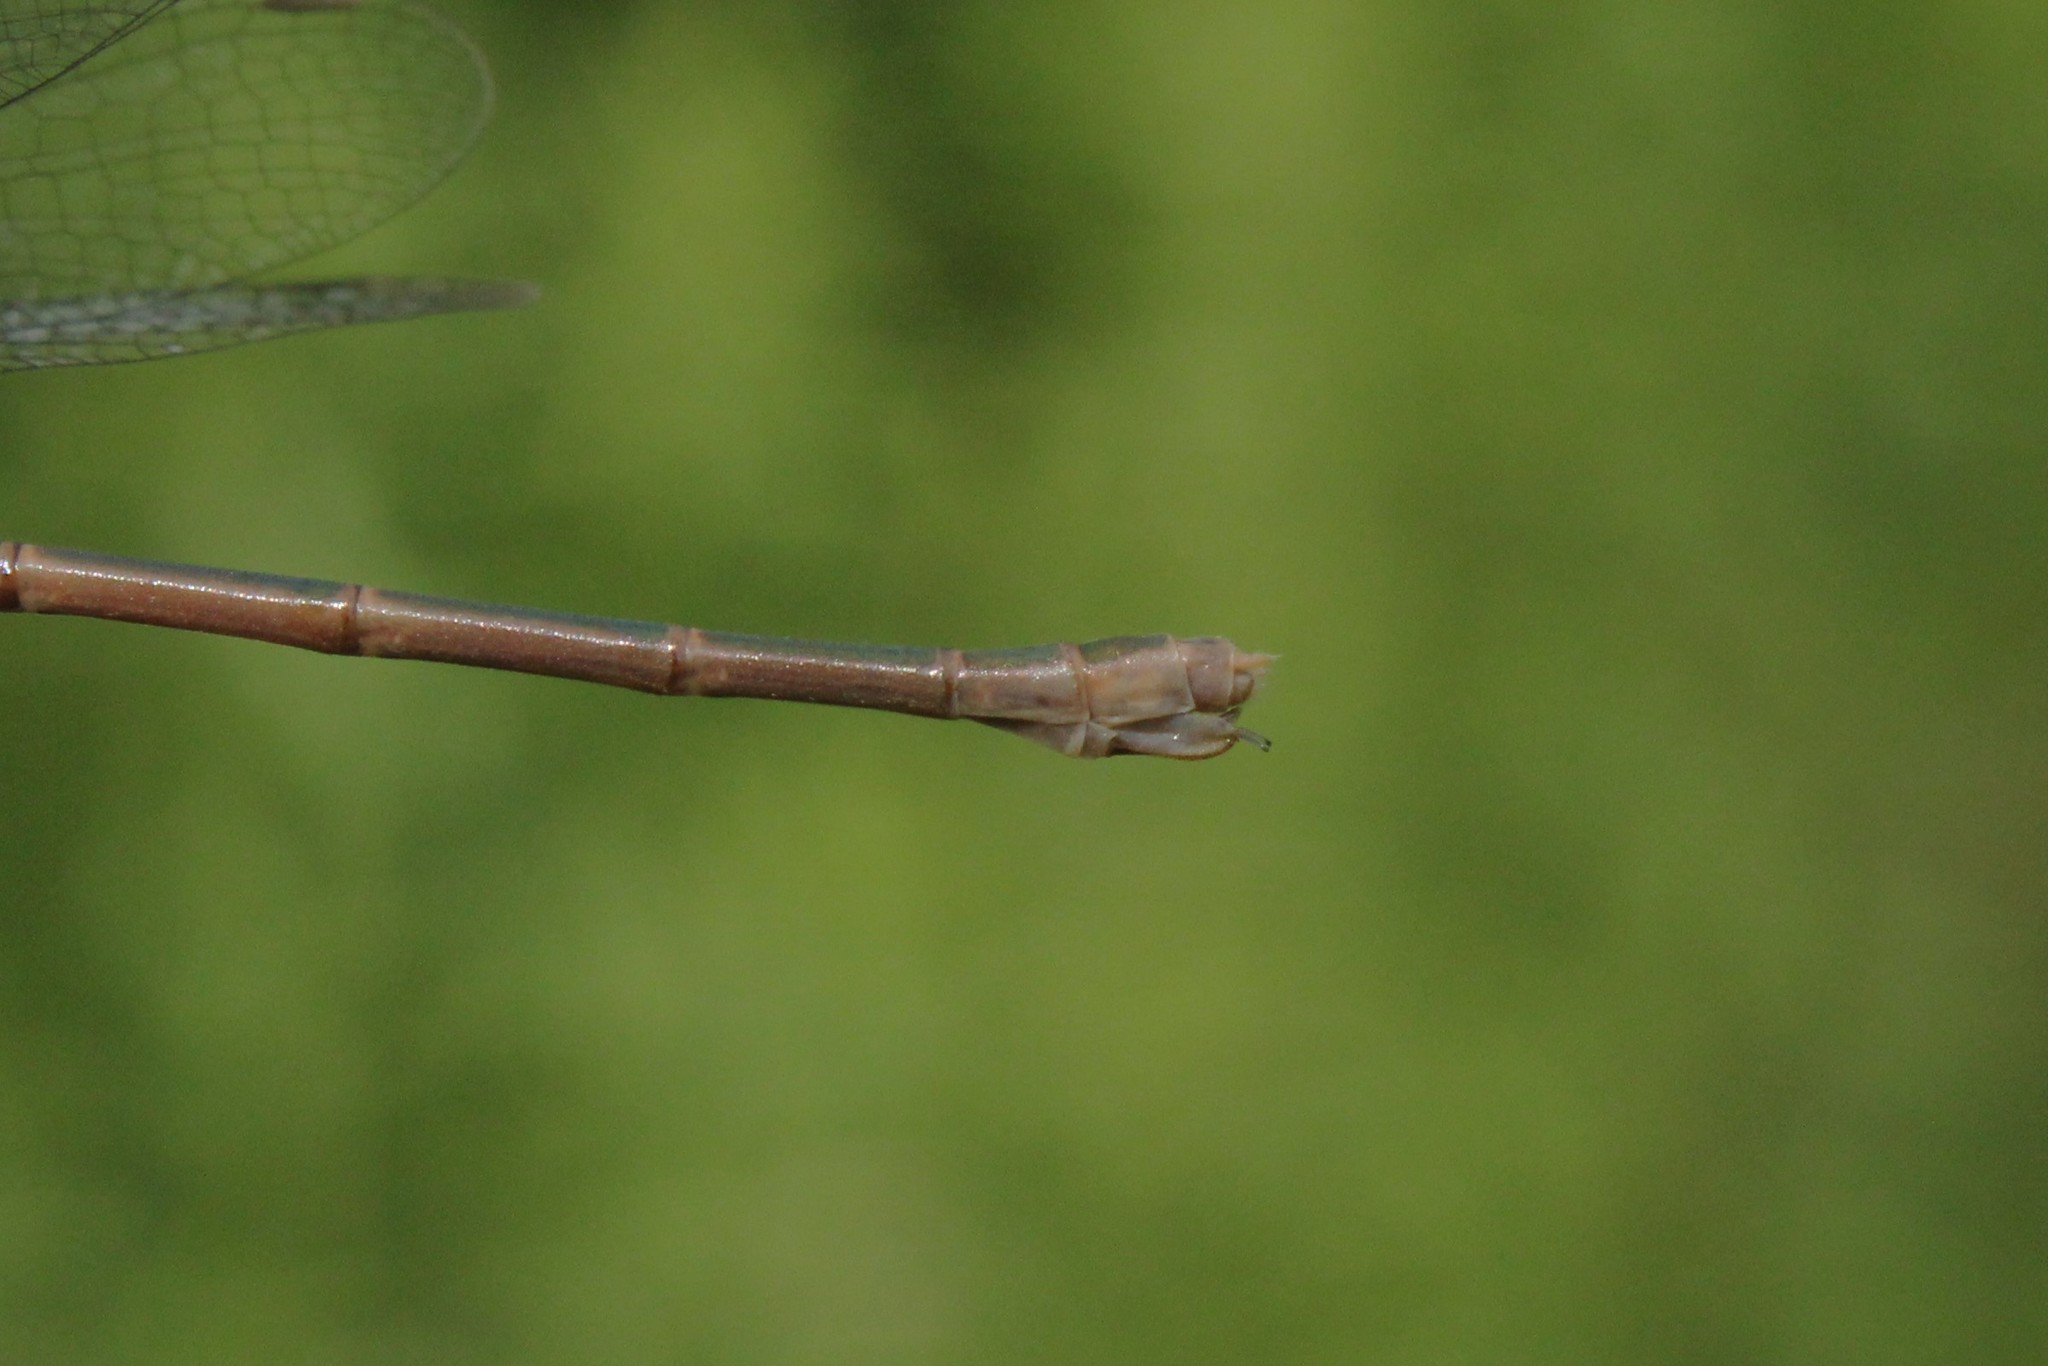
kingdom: Animalia
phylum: Arthropoda
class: Insecta
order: Odonata
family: Lestidae
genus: Lestes
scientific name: Lestes rectangularis
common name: Slender spreadwing
